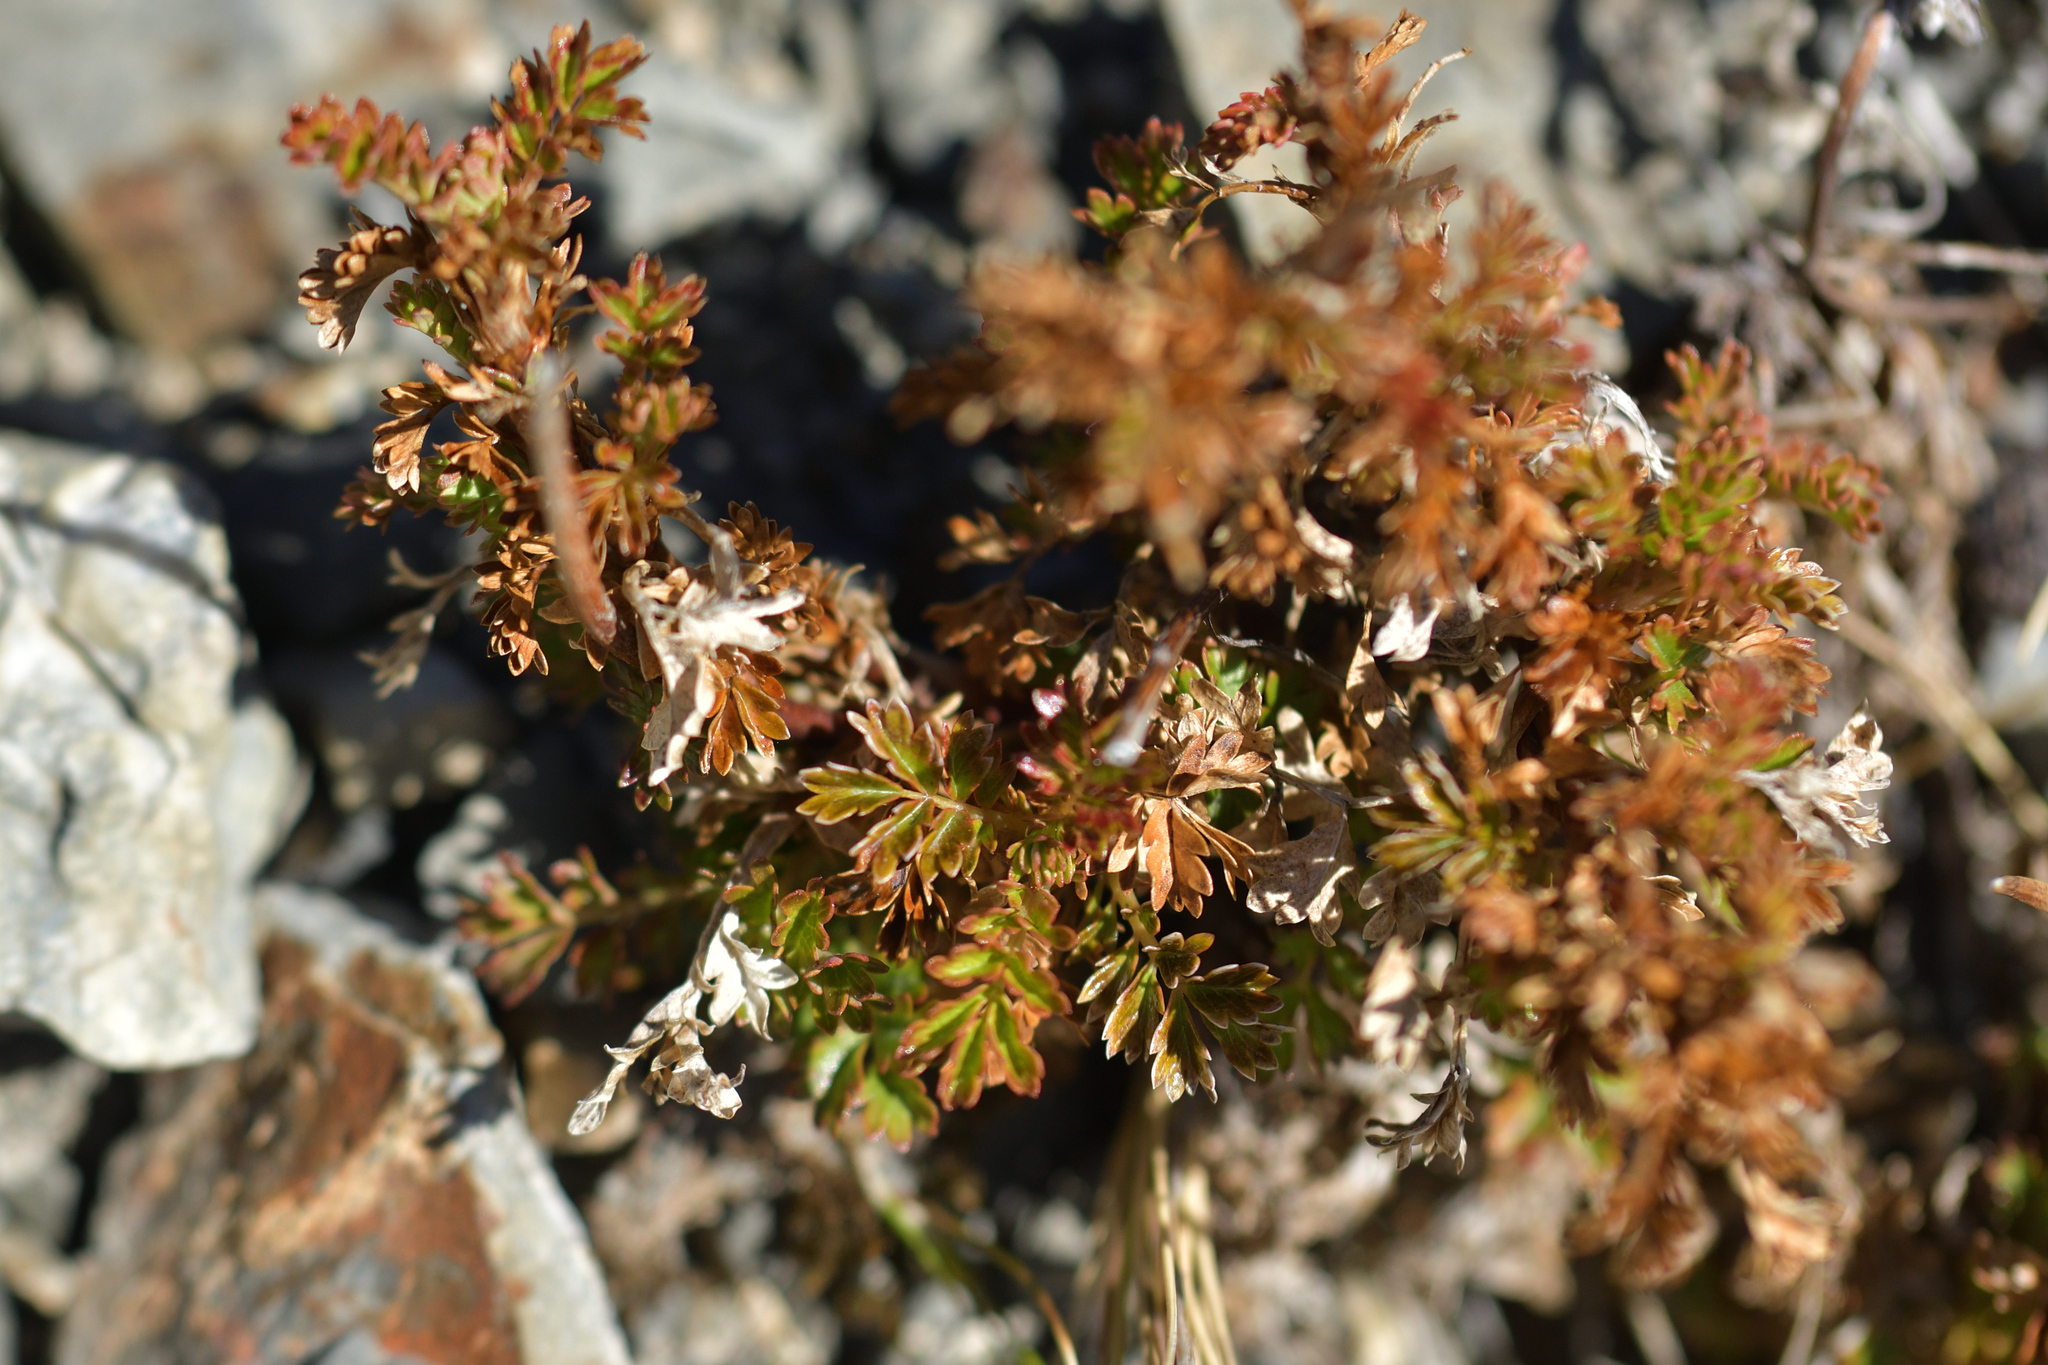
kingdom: Plantae
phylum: Tracheophyta
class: Magnoliopsida
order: Rosales
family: Rosaceae
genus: Acaena
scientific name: Acaena glabra
